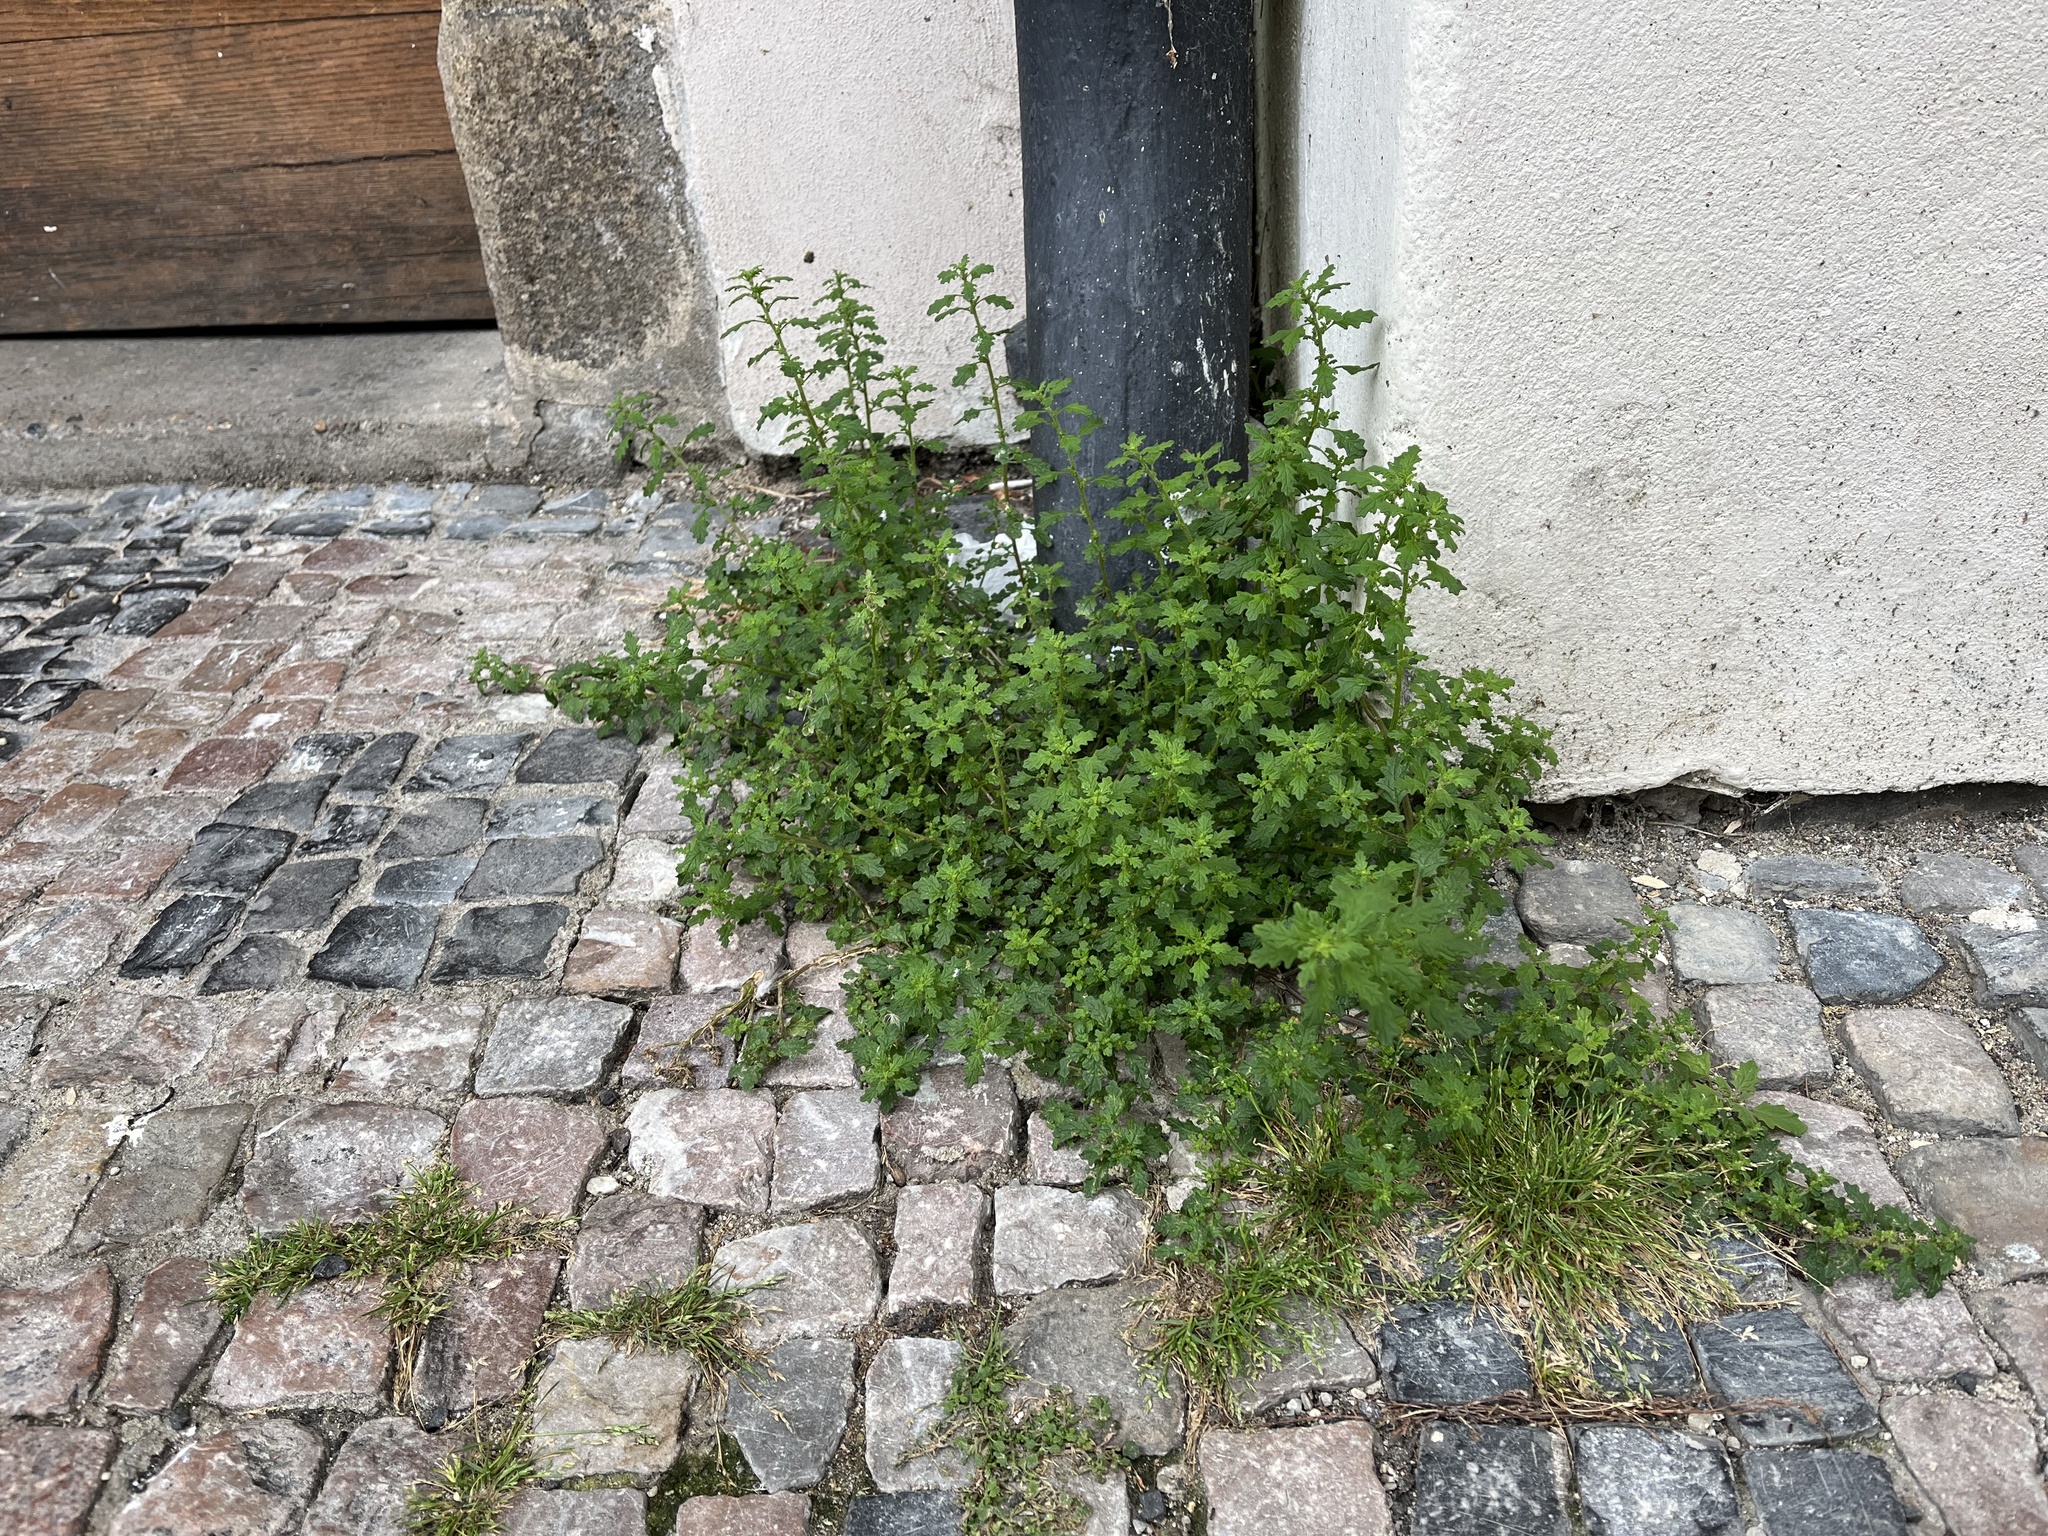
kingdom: Plantae
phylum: Tracheophyta
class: Magnoliopsida
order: Caryophyllales
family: Amaranthaceae
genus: Dysphania
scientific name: Dysphania pumilio
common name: Clammy goosefoot
